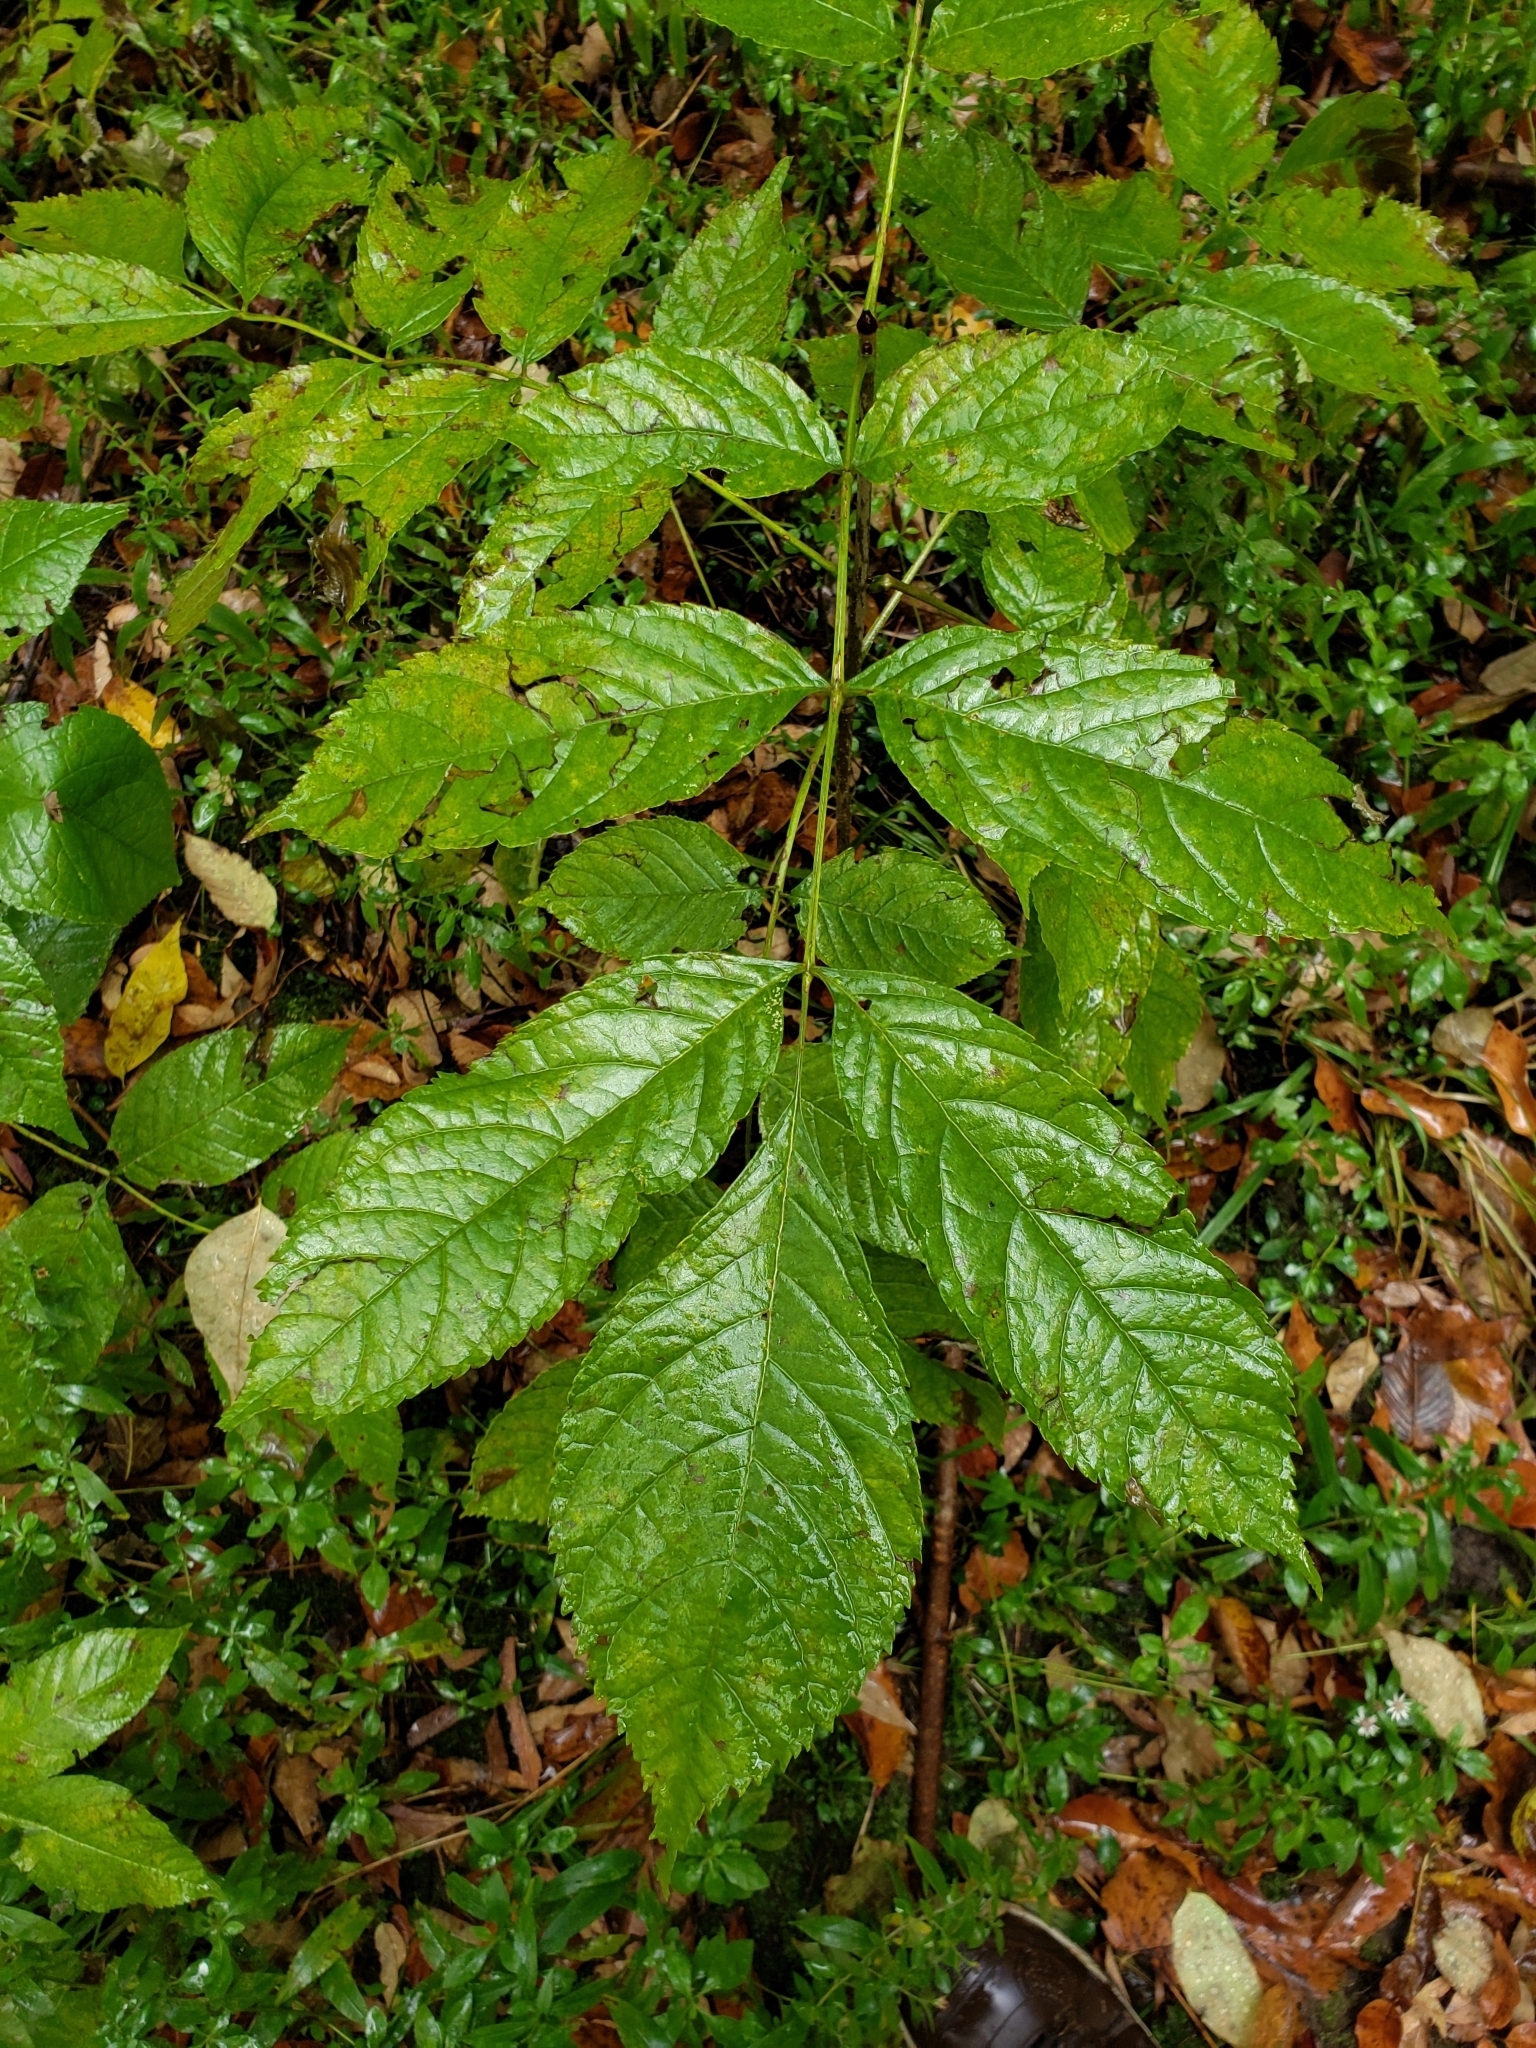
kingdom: Plantae
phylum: Tracheophyta
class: Magnoliopsida
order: Lamiales
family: Oleaceae
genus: Fraxinus
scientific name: Fraxinus nigra
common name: Black ash
